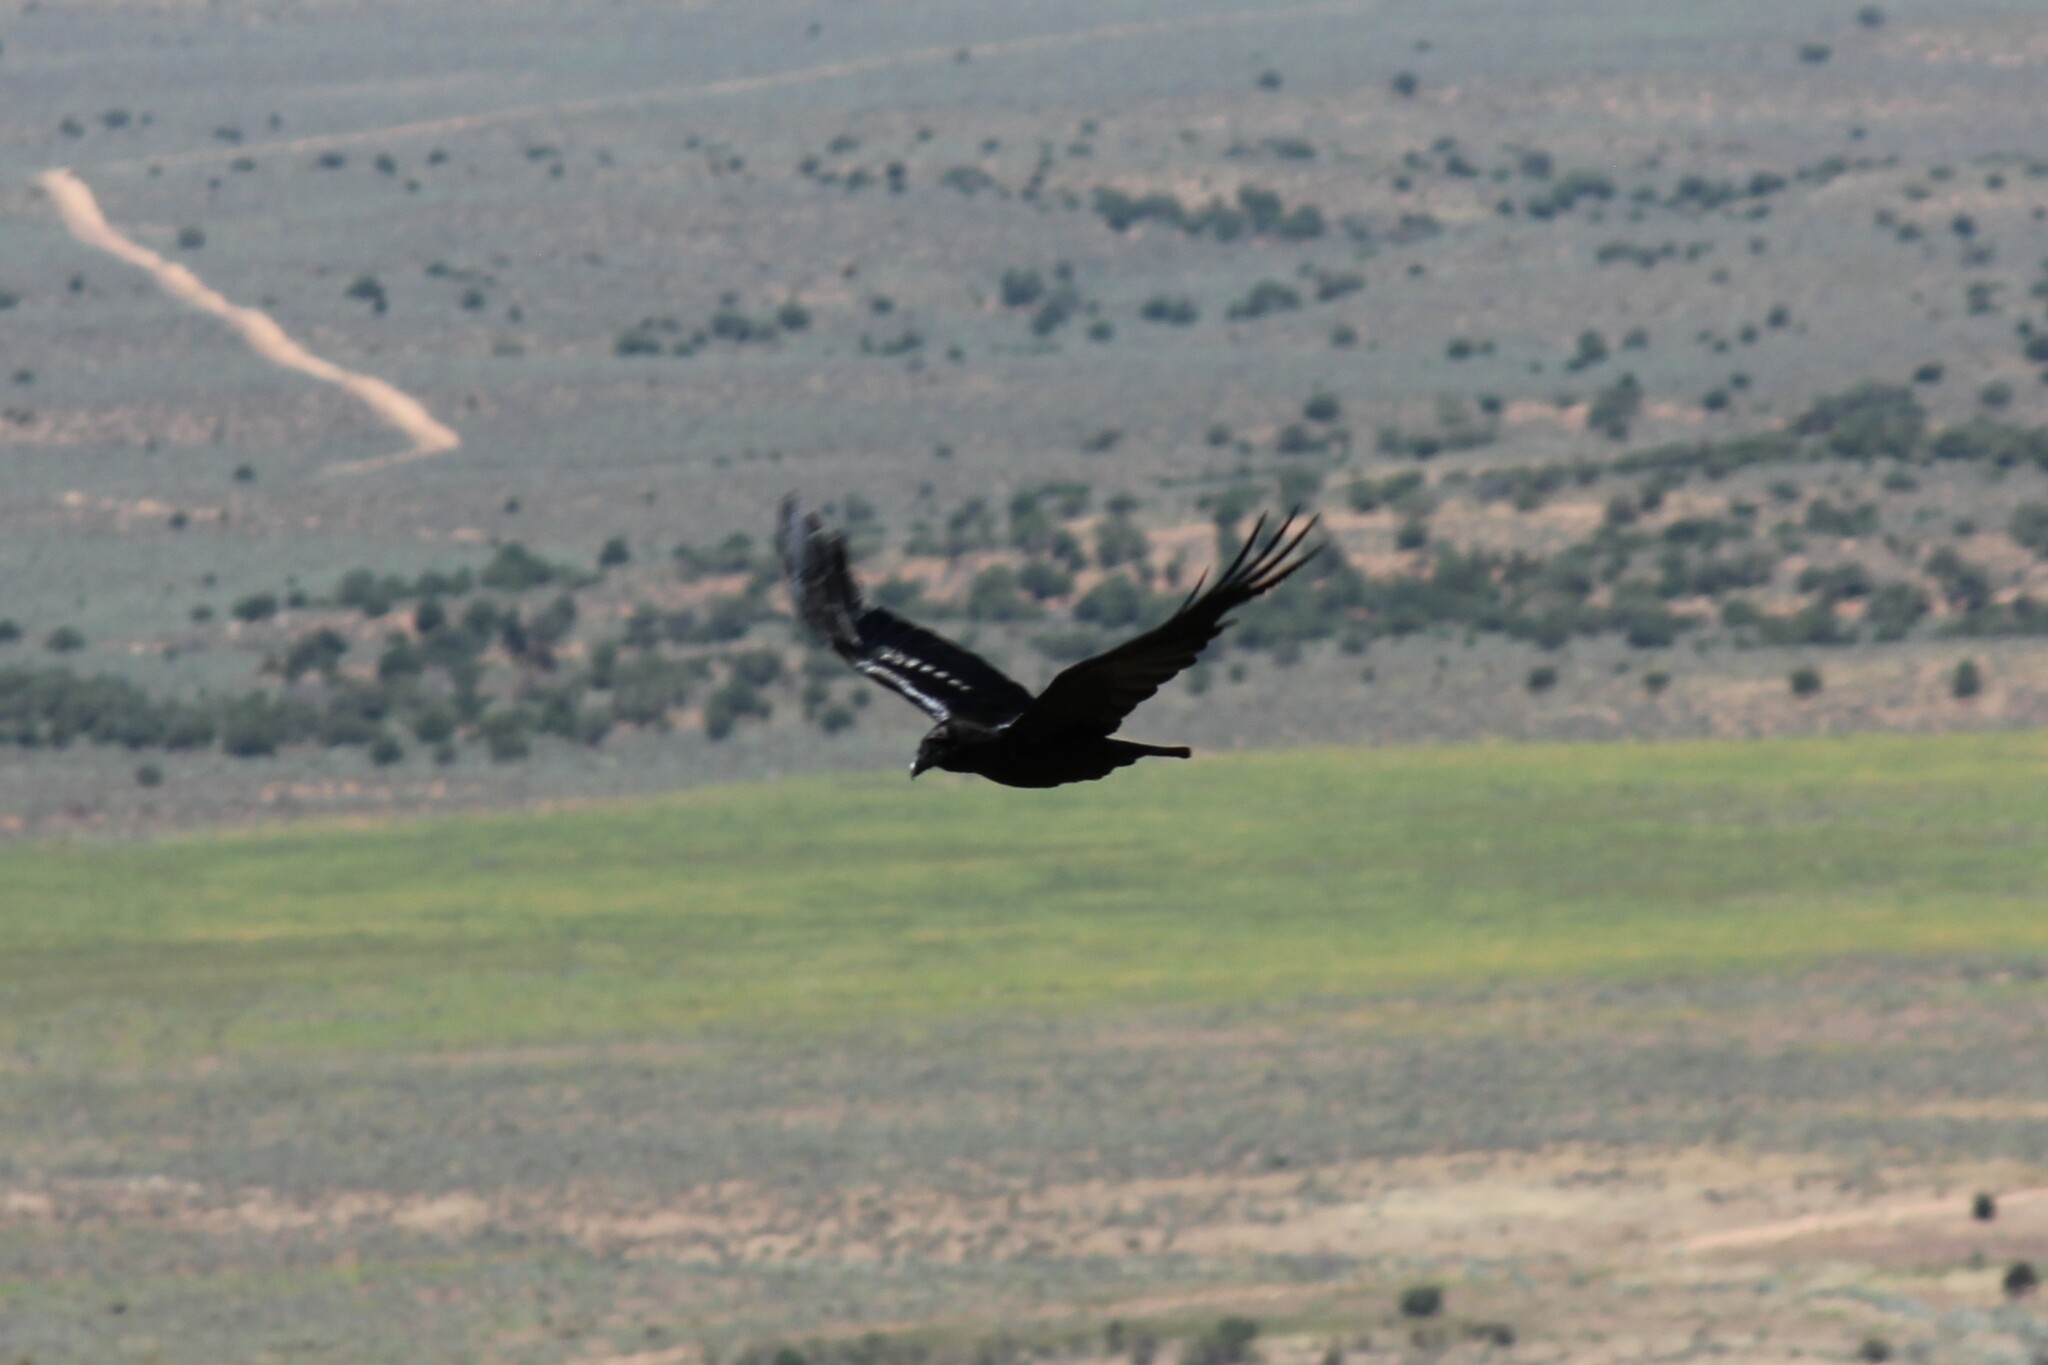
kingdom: Animalia
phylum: Chordata
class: Aves
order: Passeriformes
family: Corvidae
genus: Corvus
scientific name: Corvus corax
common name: Common raven
